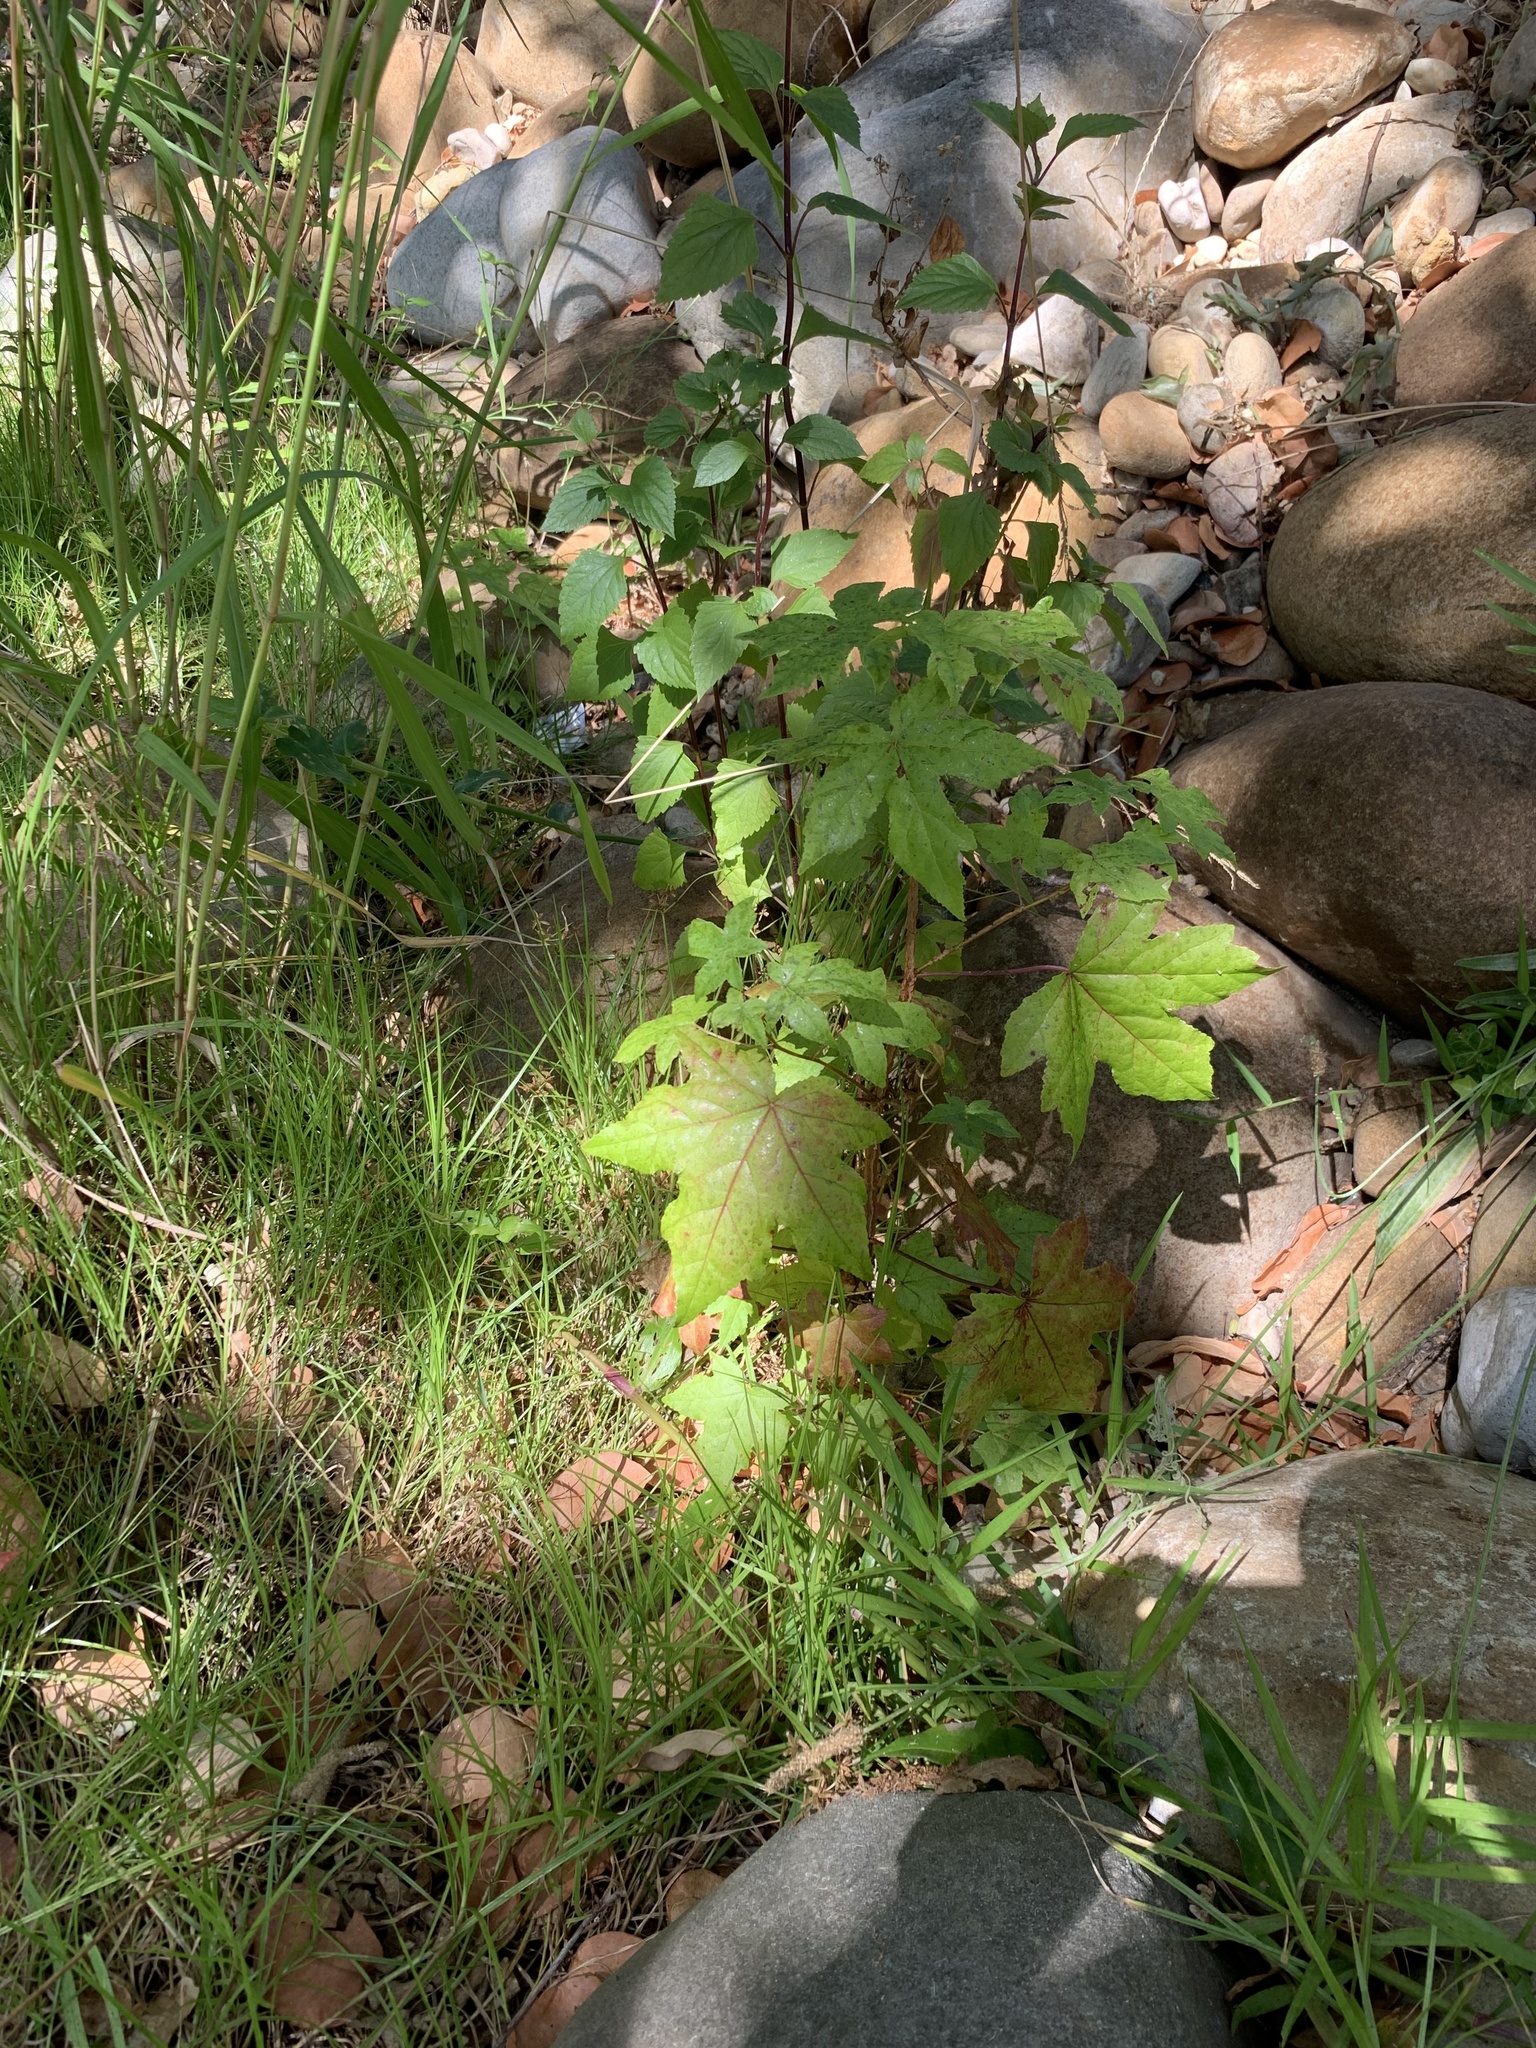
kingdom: Plantae
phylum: Tracheophyta
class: Magnoliopsida
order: Saxifragales
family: Altingiaceae
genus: Liquidambar
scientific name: Liquidambar styraciflua
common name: Sweet gum
